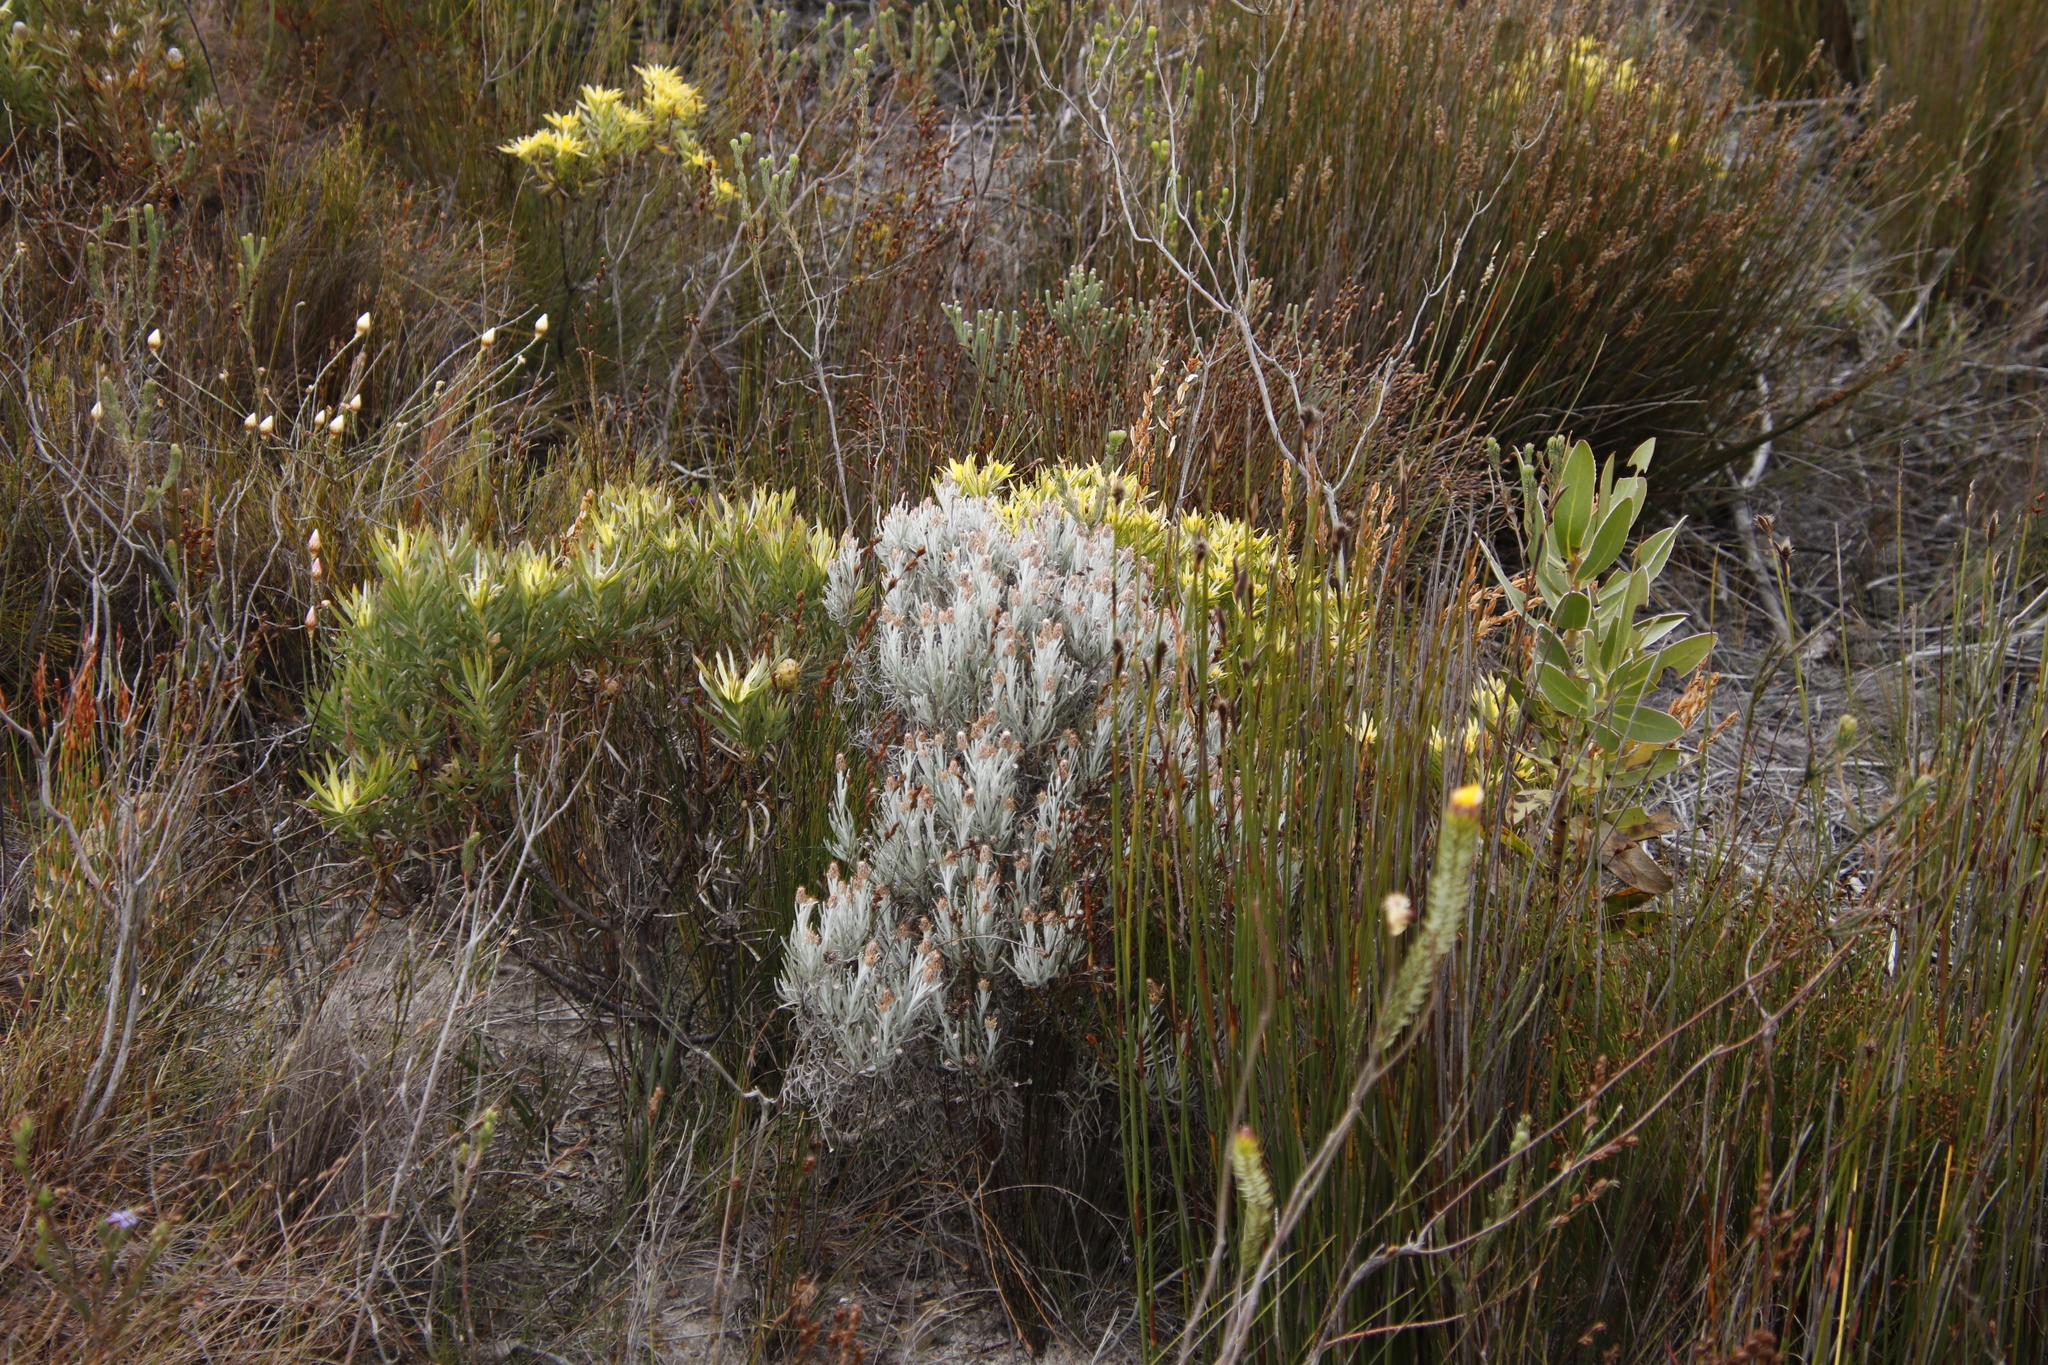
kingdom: Plantae
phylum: Tracheophyta
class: Magnoliopsida
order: Asterales
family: Asteraceae
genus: Syncarpha
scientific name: Syncarpha gnaphaloides
